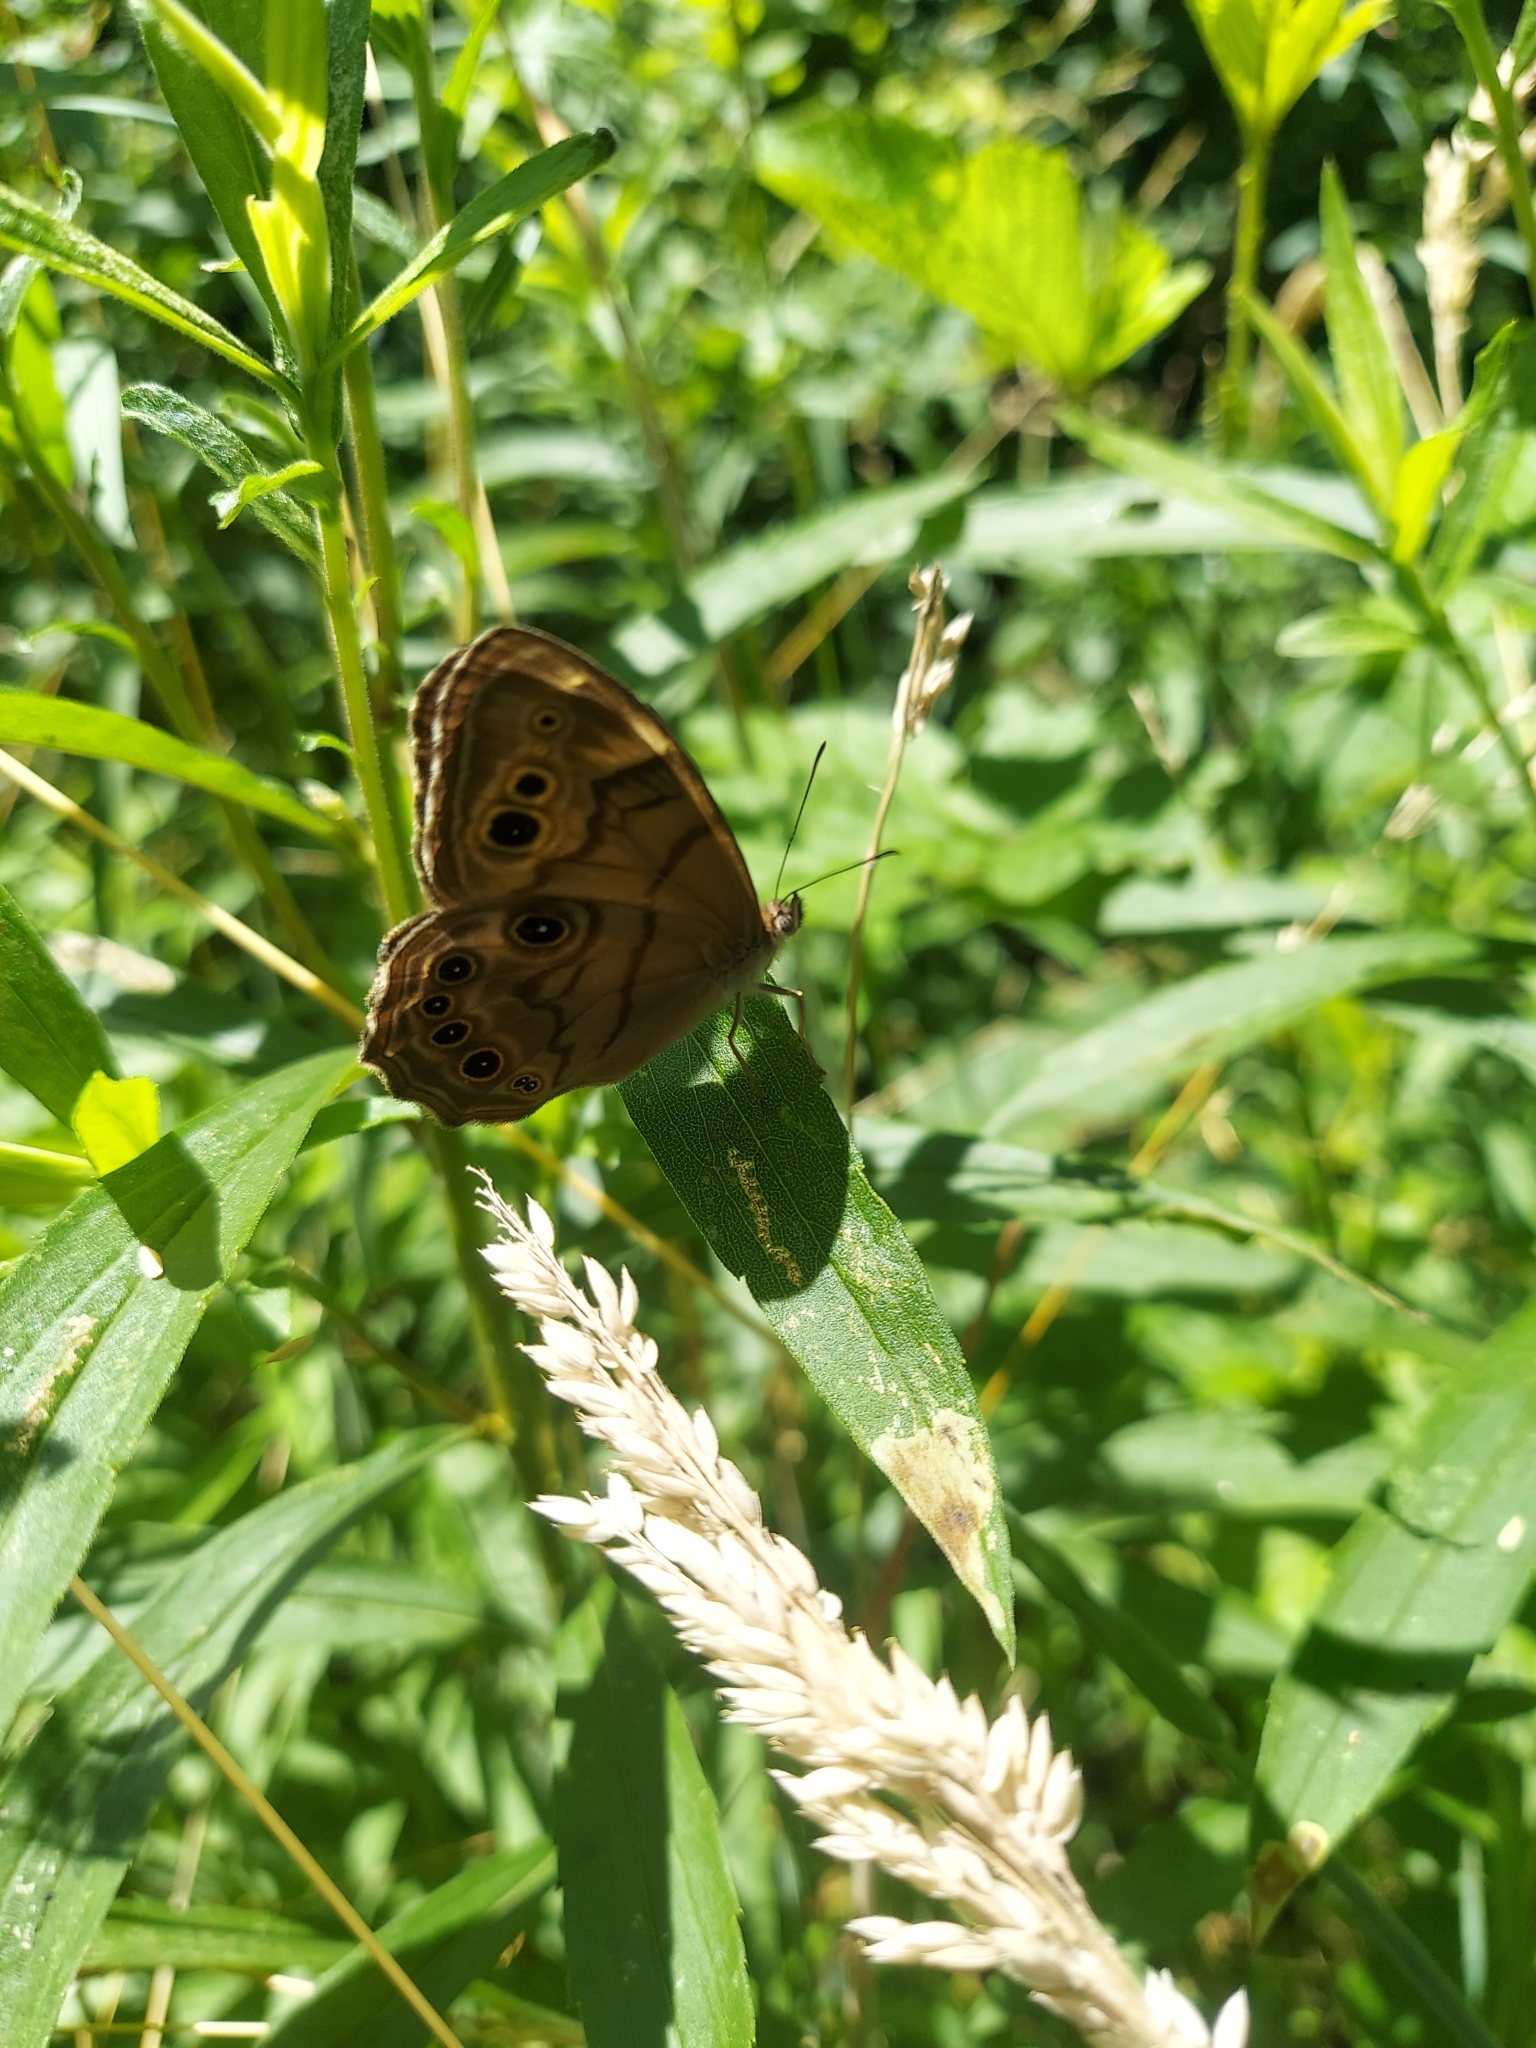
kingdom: Animalia
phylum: Arthropoda
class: Insecta
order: Lepidoptera
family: Nymphalidae
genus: Lethe
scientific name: Lethe anthedon
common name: Northern pearly-eye
